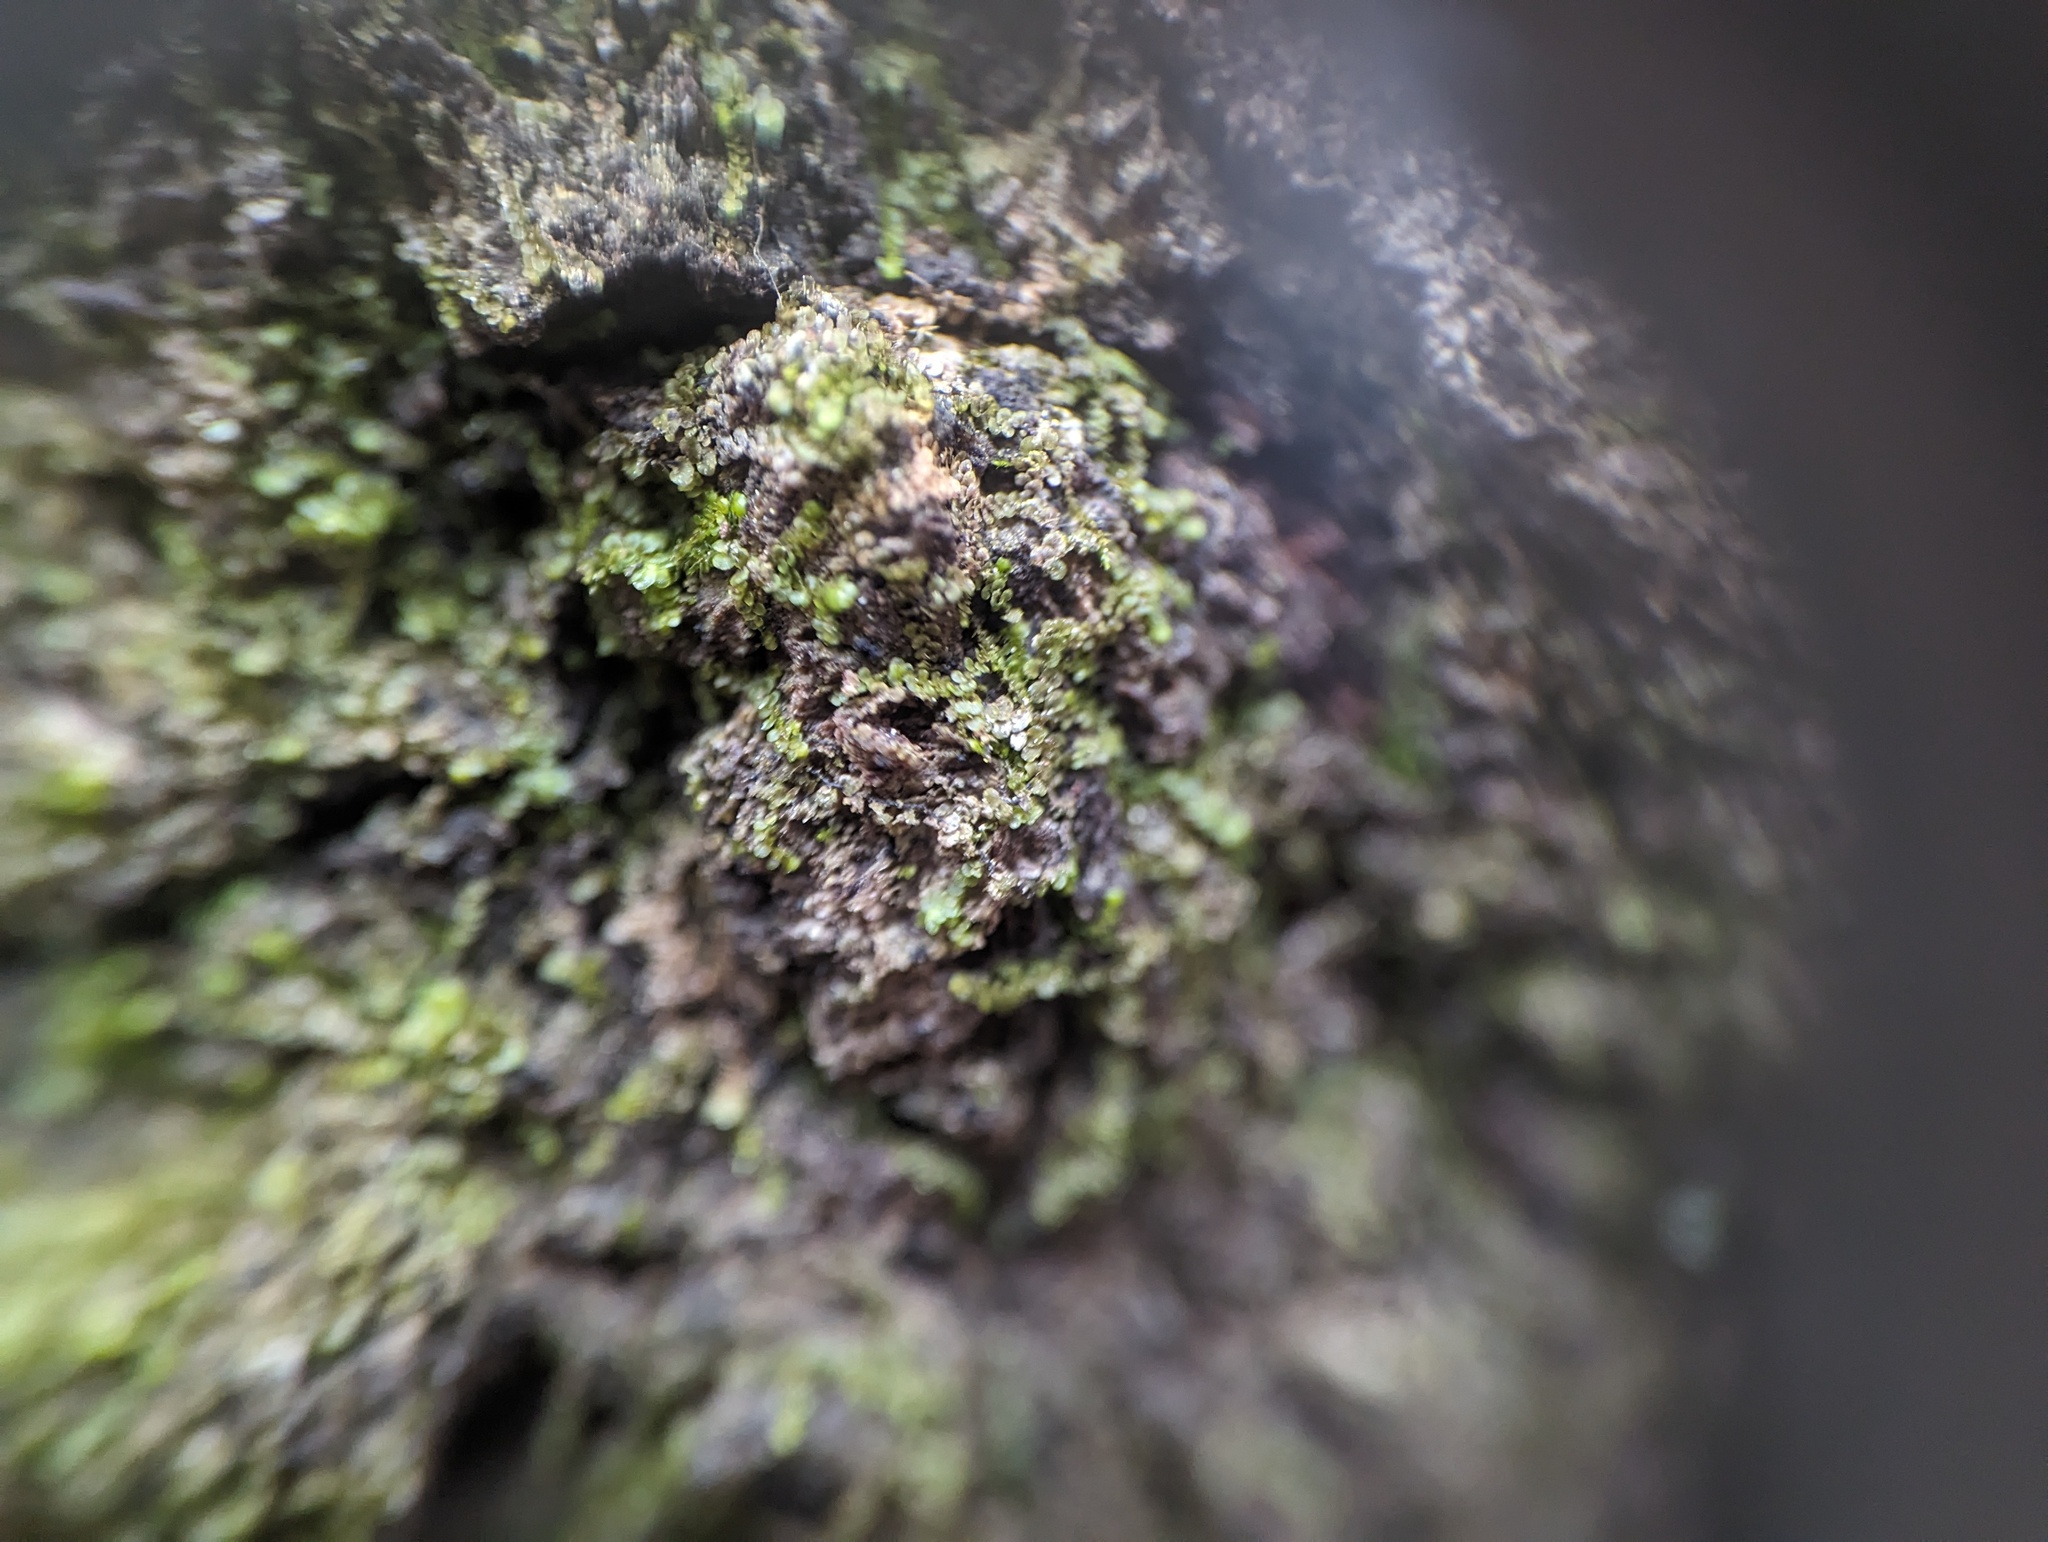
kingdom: Plantae
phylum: Marchantiophyta
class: Jungermanniopsida
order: Porellales
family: Frullaniaceae
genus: Frullania
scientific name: Frullania eboracensis
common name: New york scalewort
